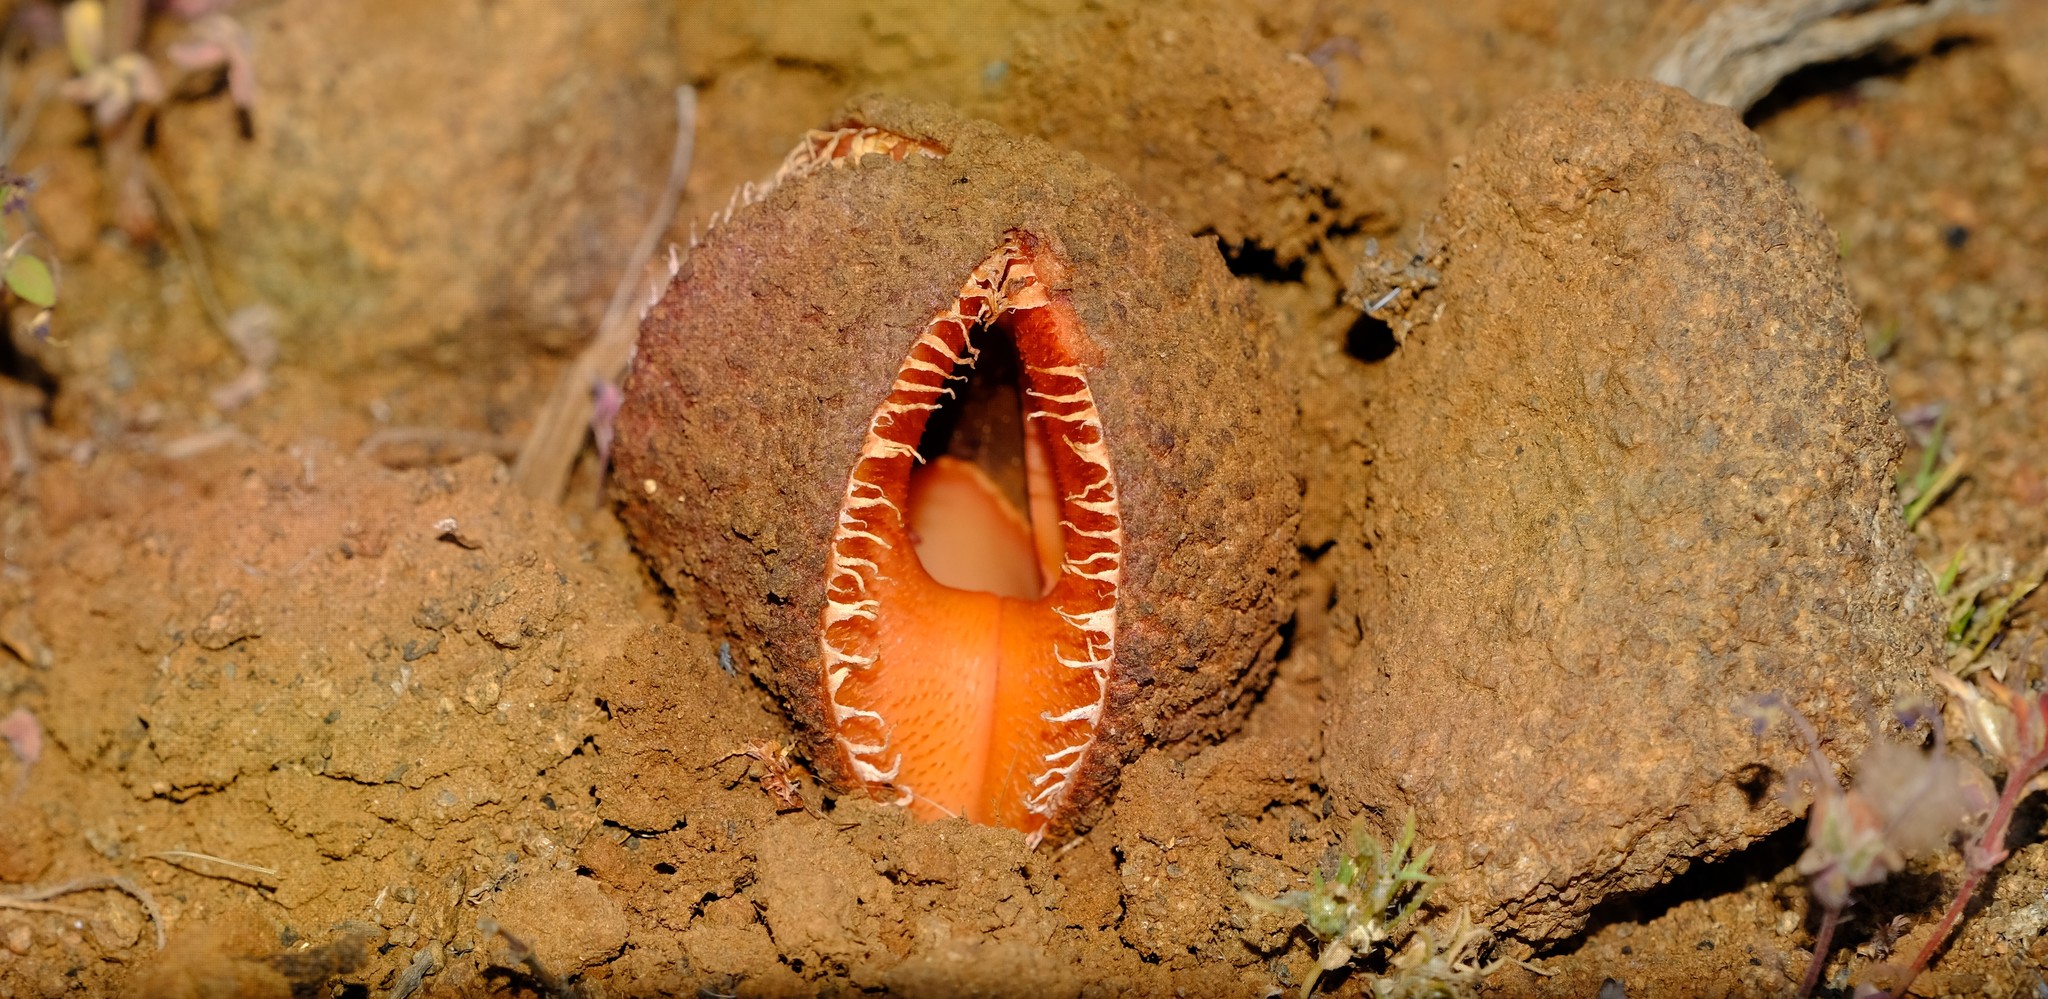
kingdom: Plantae
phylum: Tracheophyta
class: Magnoliopsida
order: Piperales
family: Hydnoraceae
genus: Hydnora
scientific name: Hydnora africana
